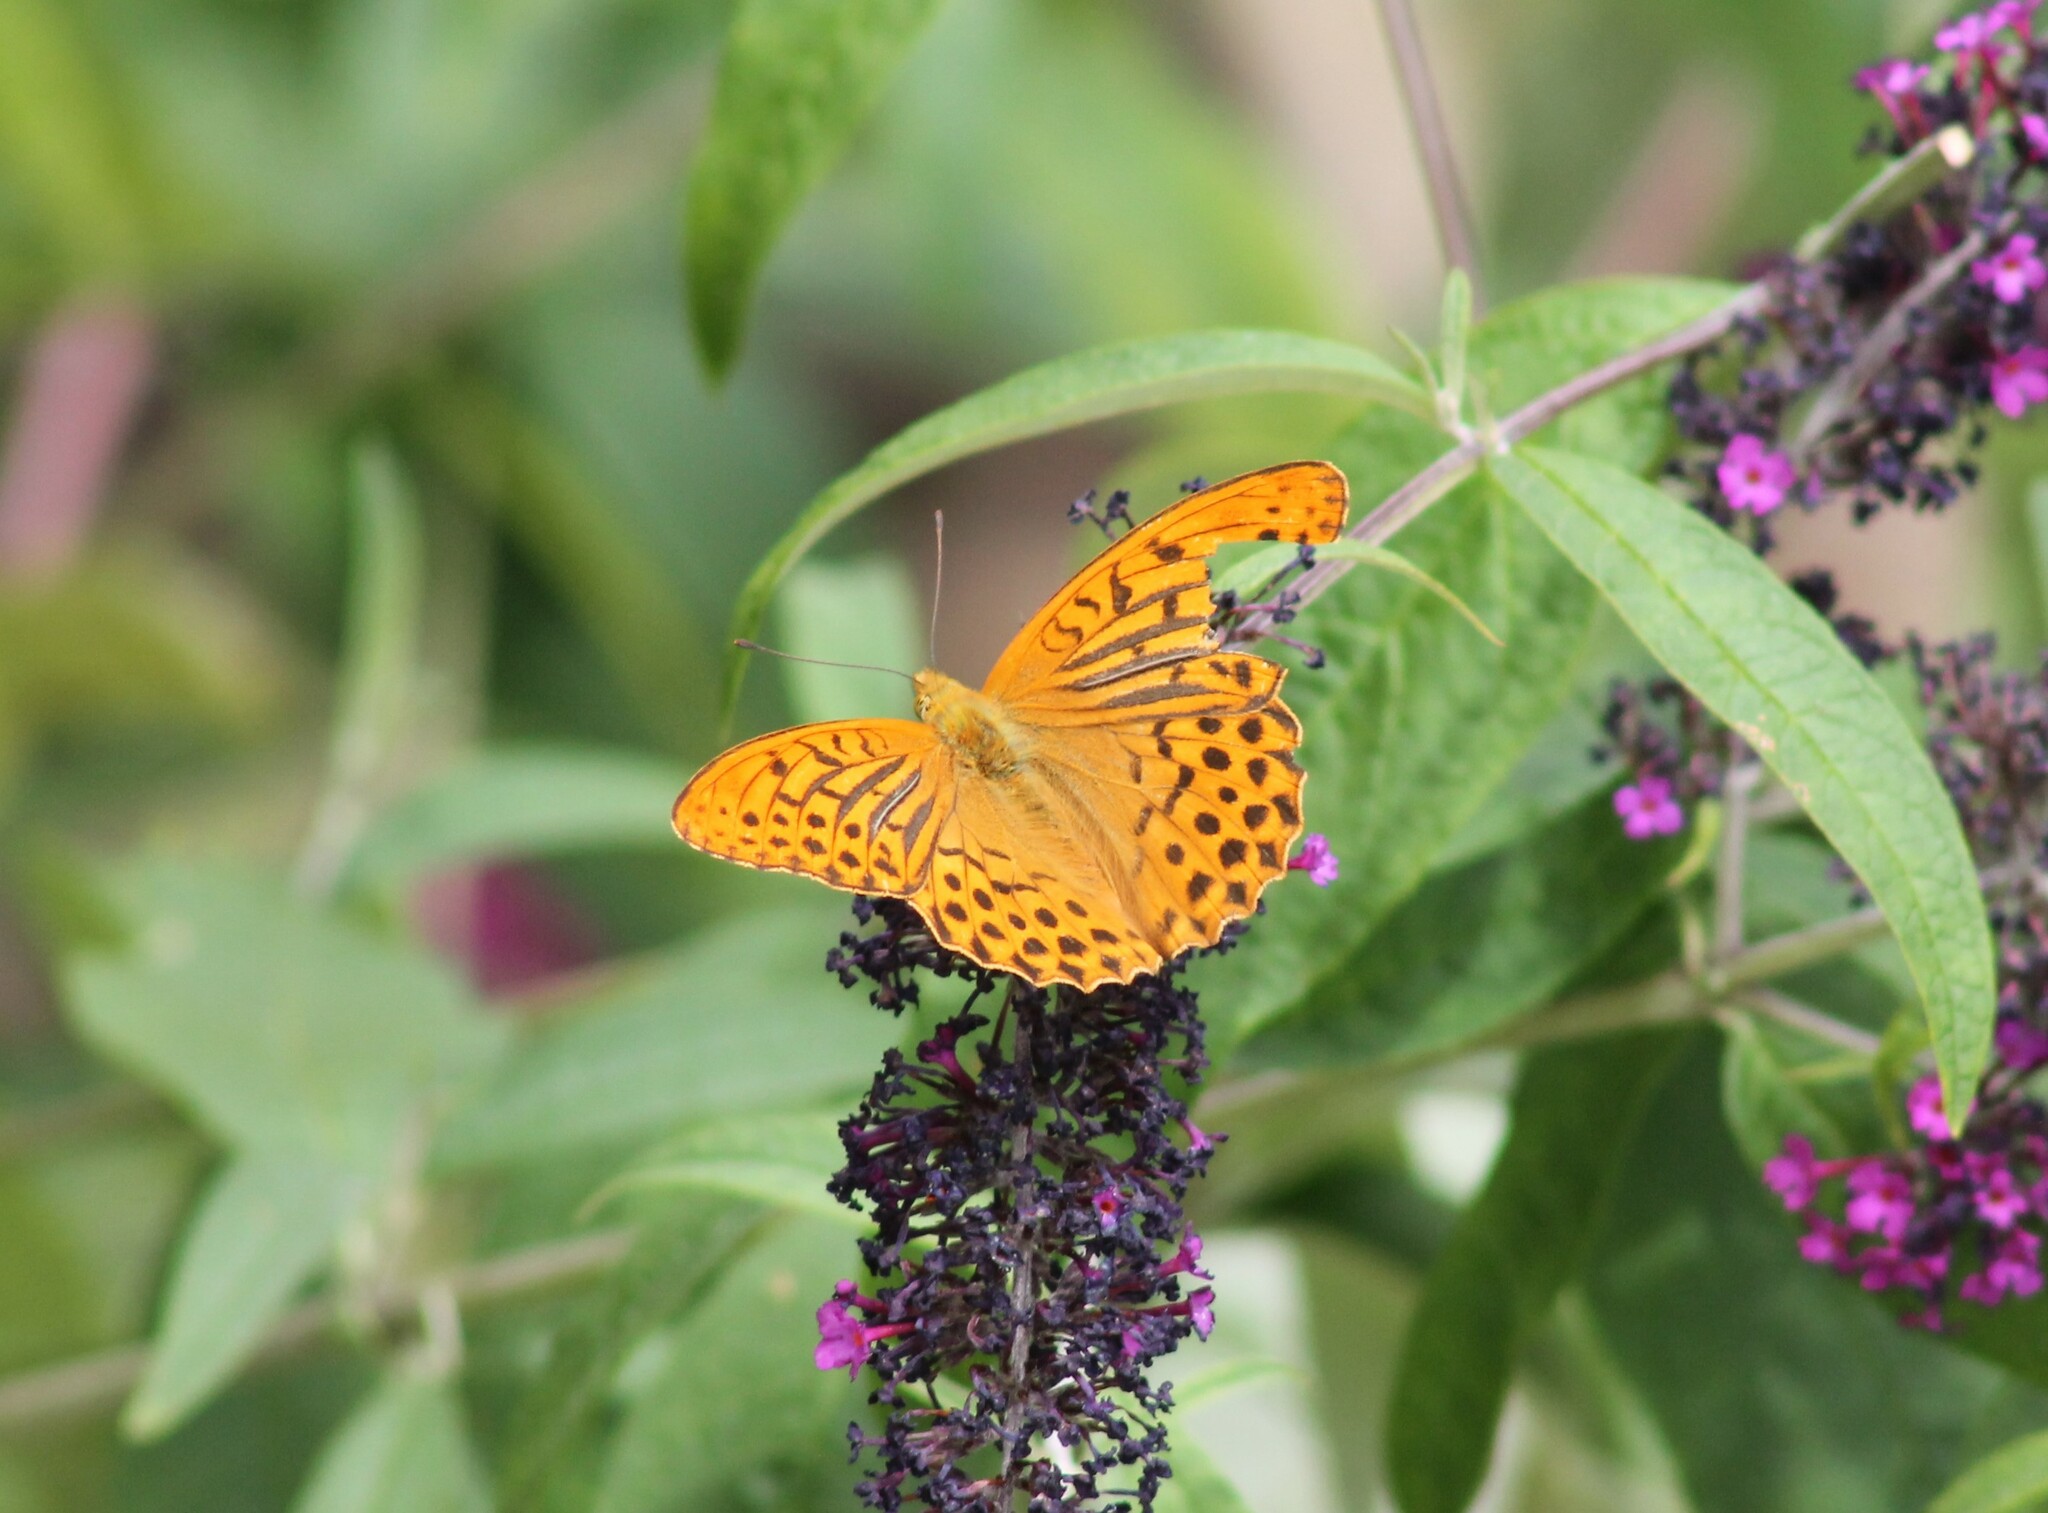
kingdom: Animalia
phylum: Arthropoda
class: Insecta
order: Lepidoptera
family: Nymphalidae
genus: Argynnis
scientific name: Argynnis paphia
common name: Silver-washed fritillary
